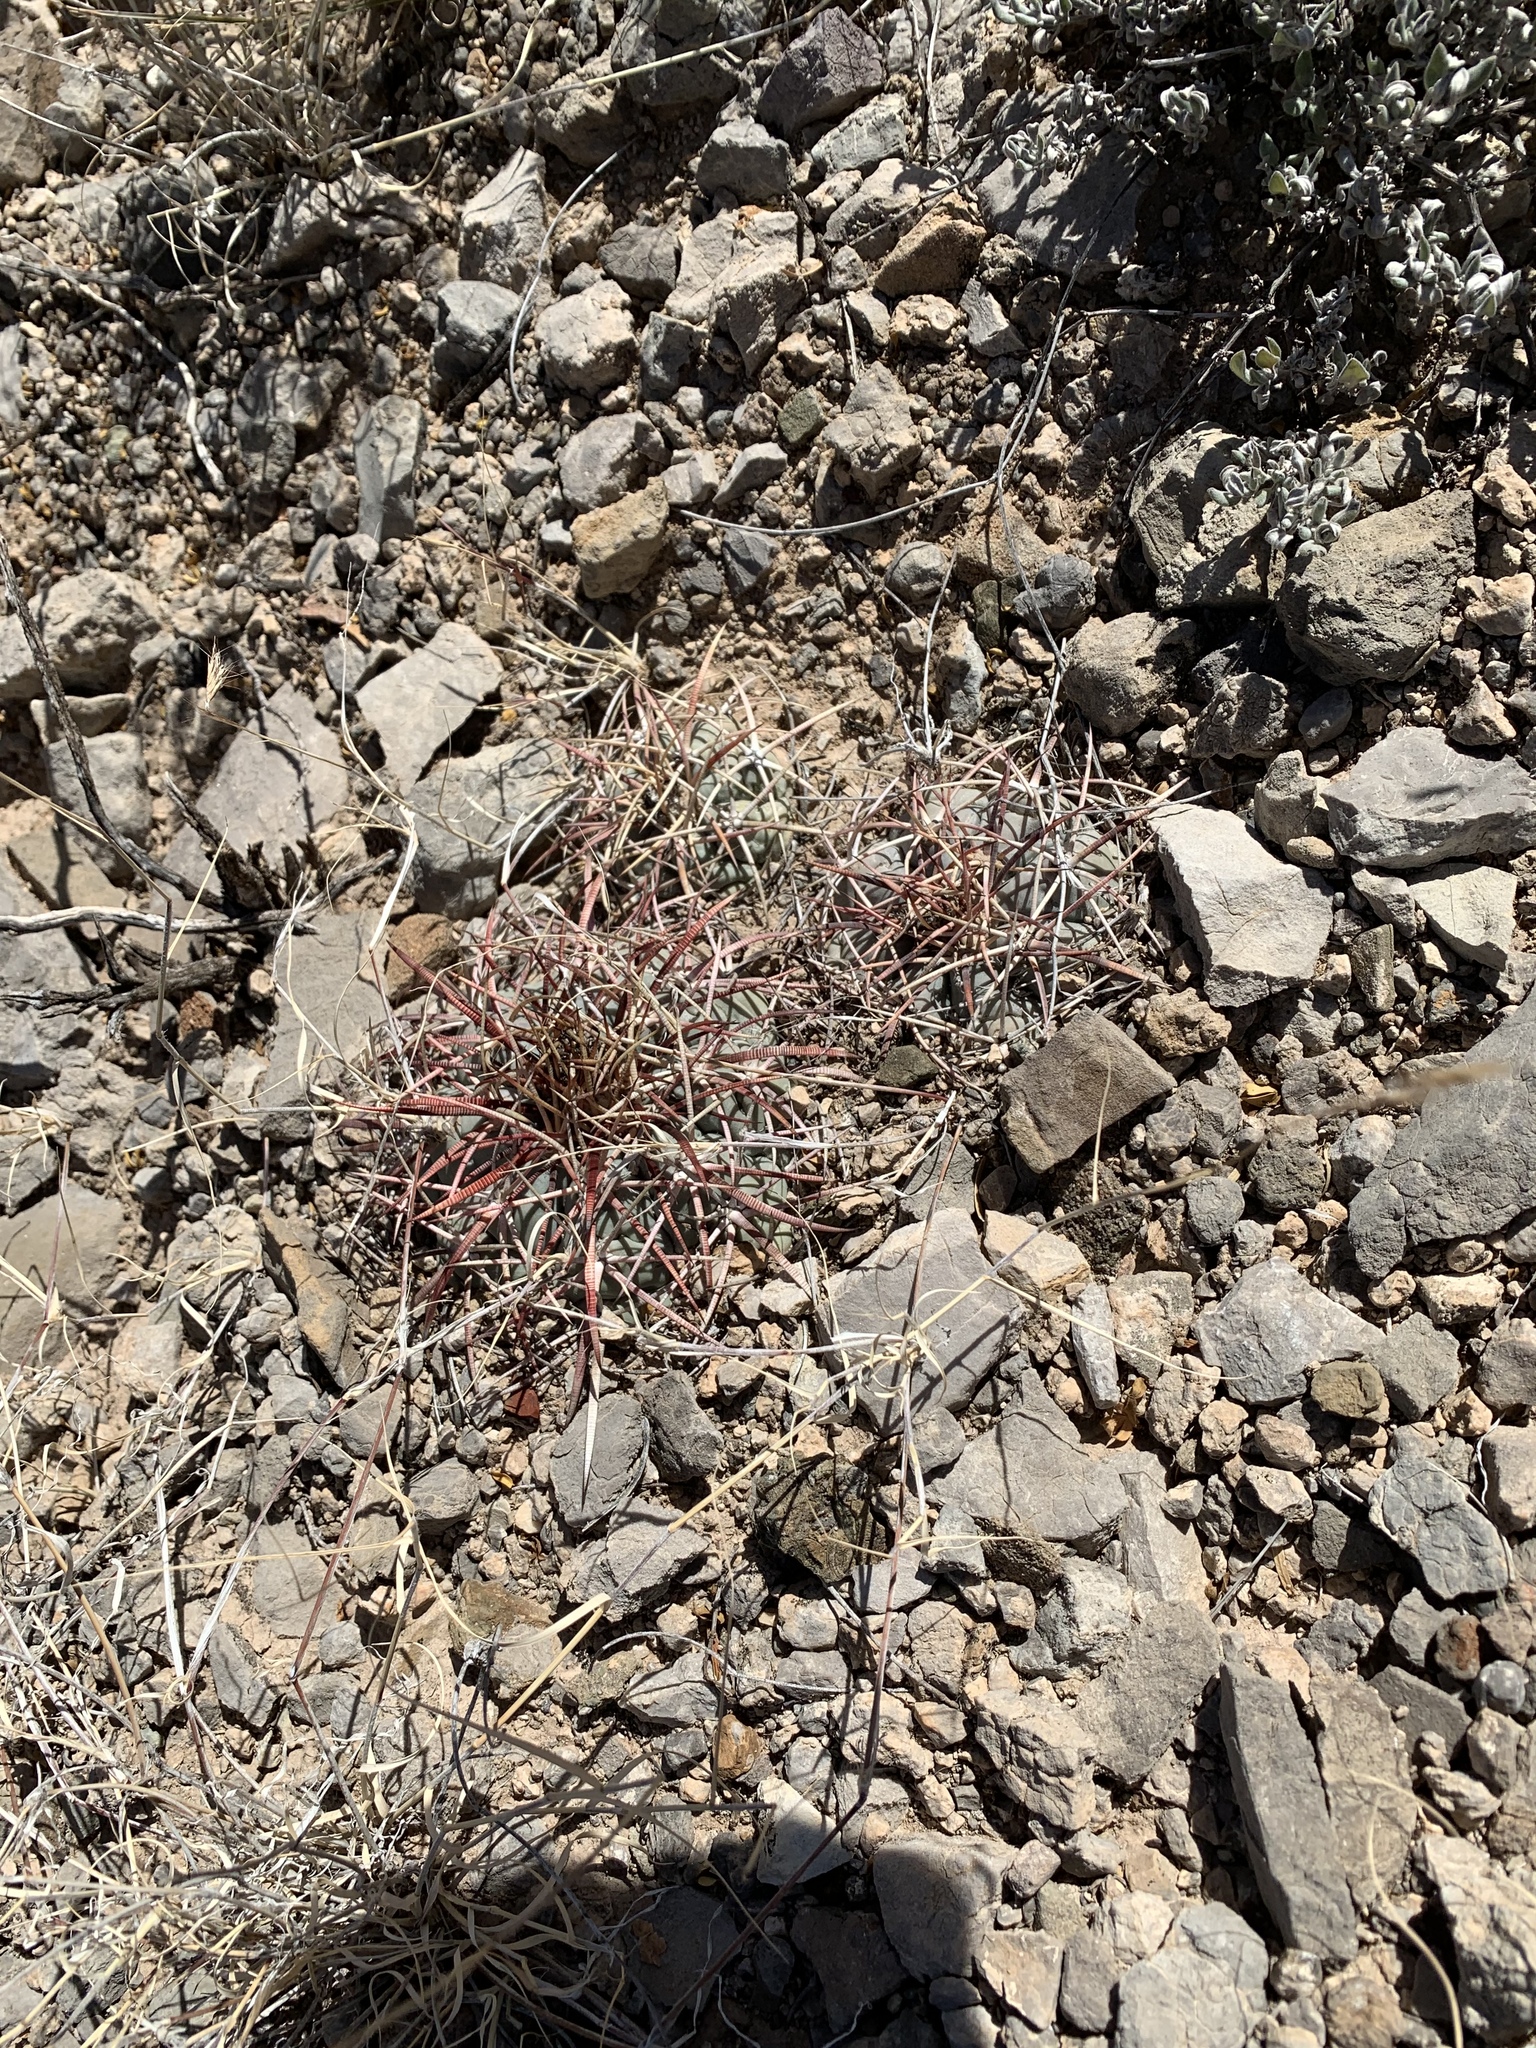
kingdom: Plantae
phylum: Tracheophyta
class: Magnoliopsida
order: Caryophyllales
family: Cactaceae
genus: Echinocactus
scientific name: Echinocactus horizonthalonius
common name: Devilshead
